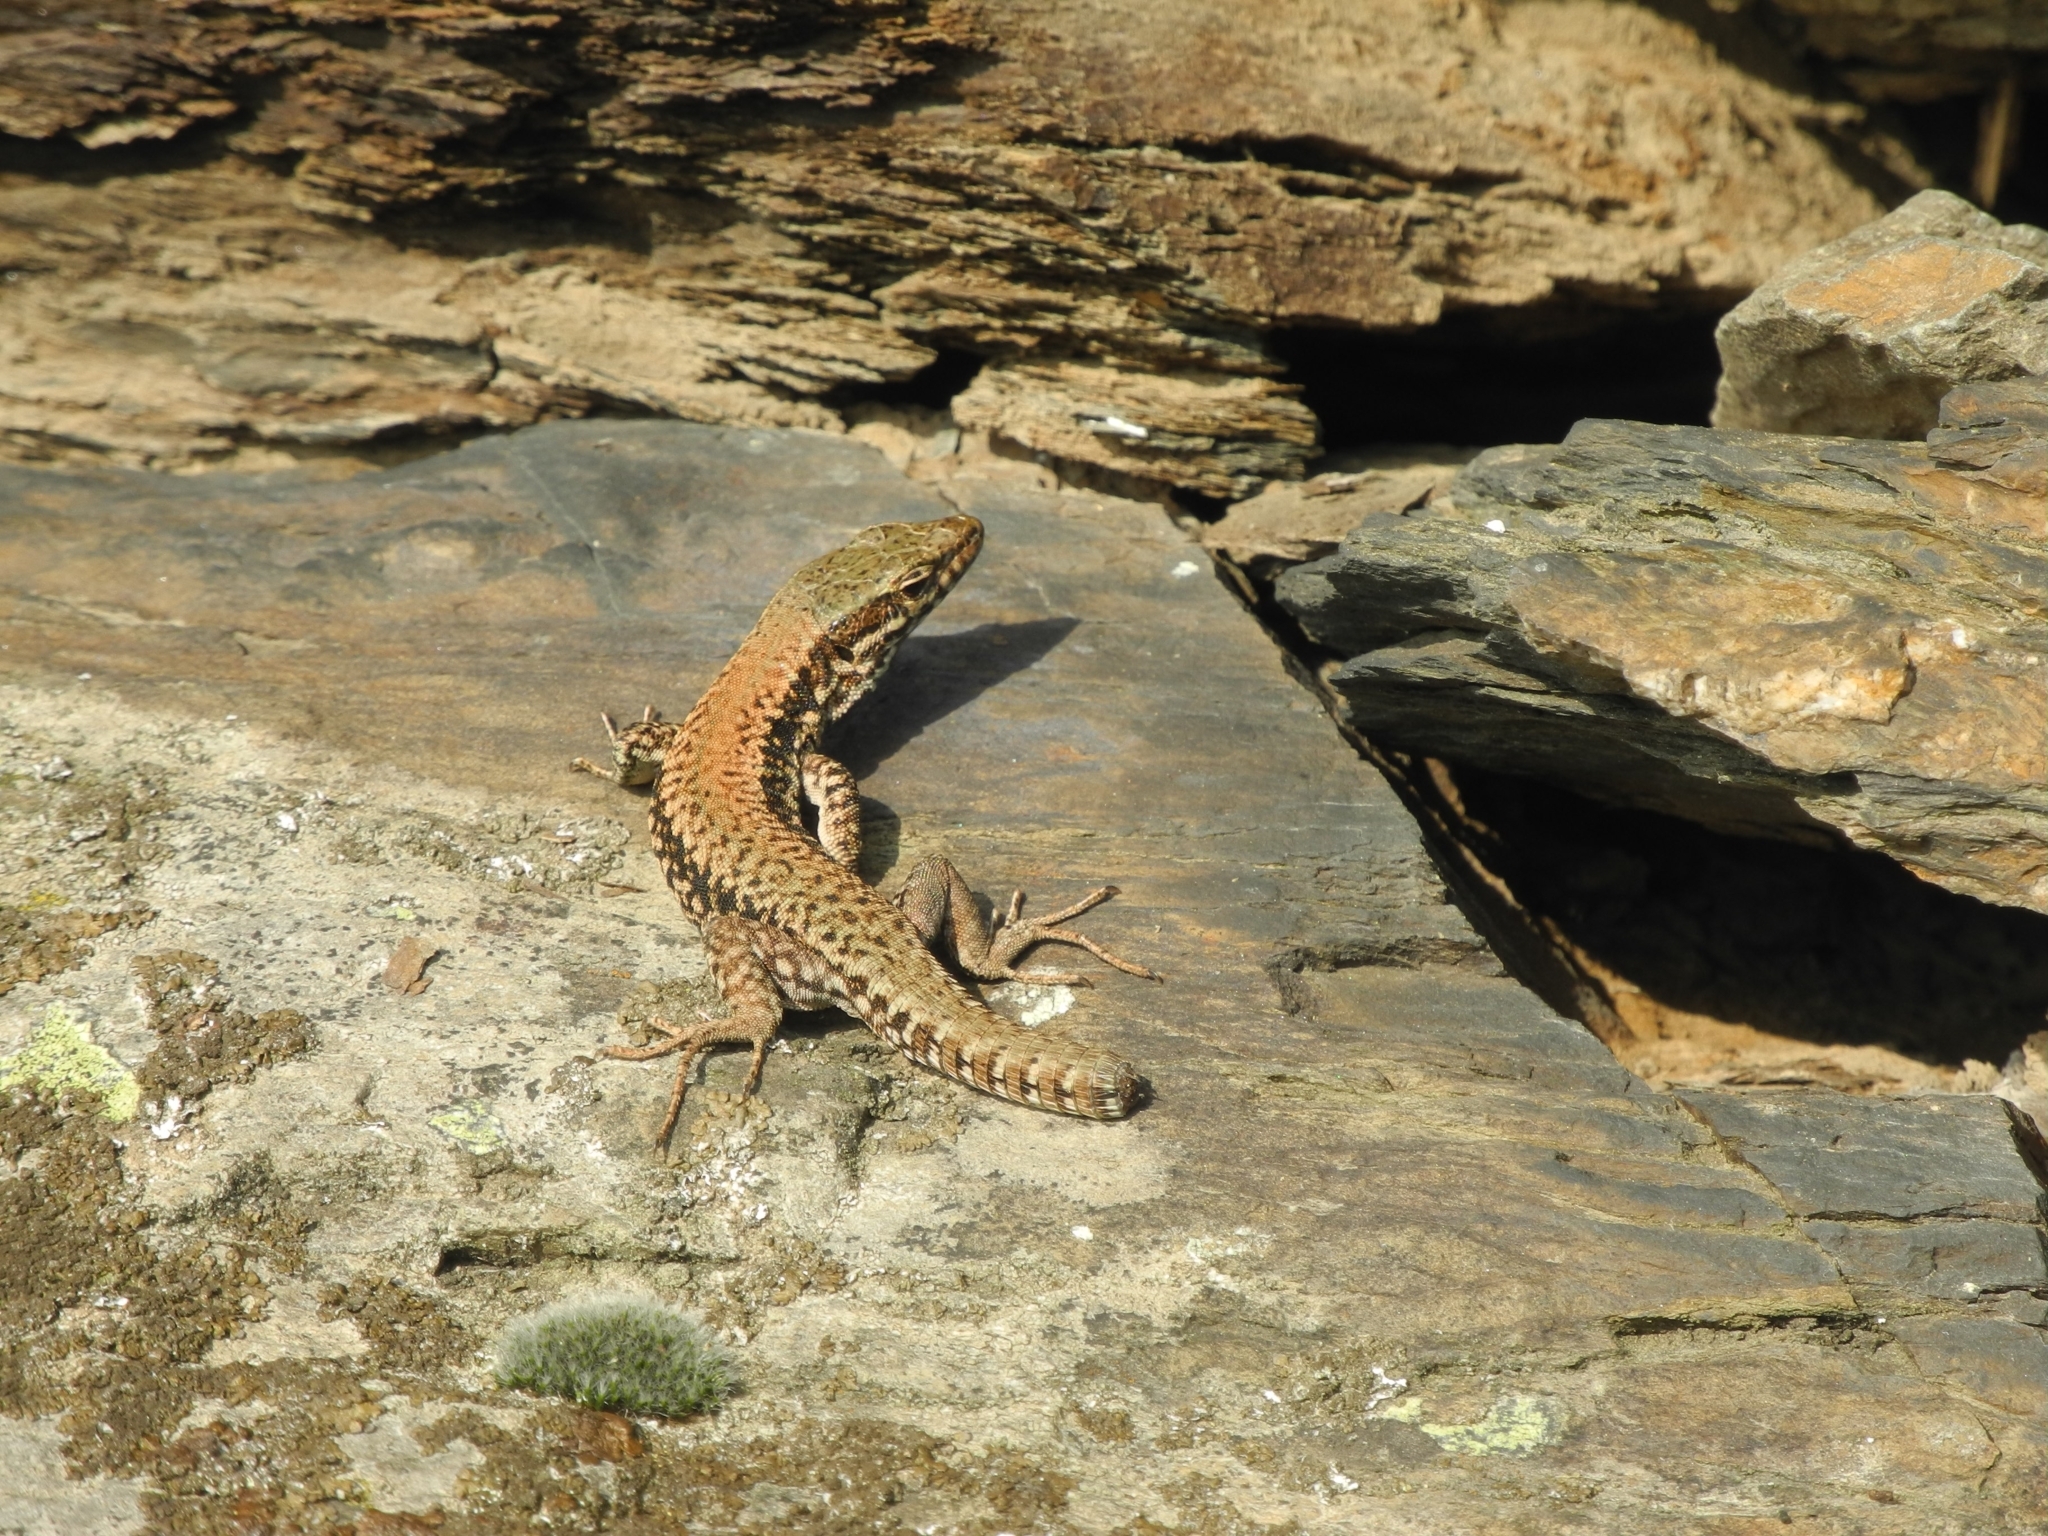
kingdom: Animalia
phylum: Chordata
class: Squamata
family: Lacertidae
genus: Podarcis
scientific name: Podarcis muralis
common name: Common wall lizard
